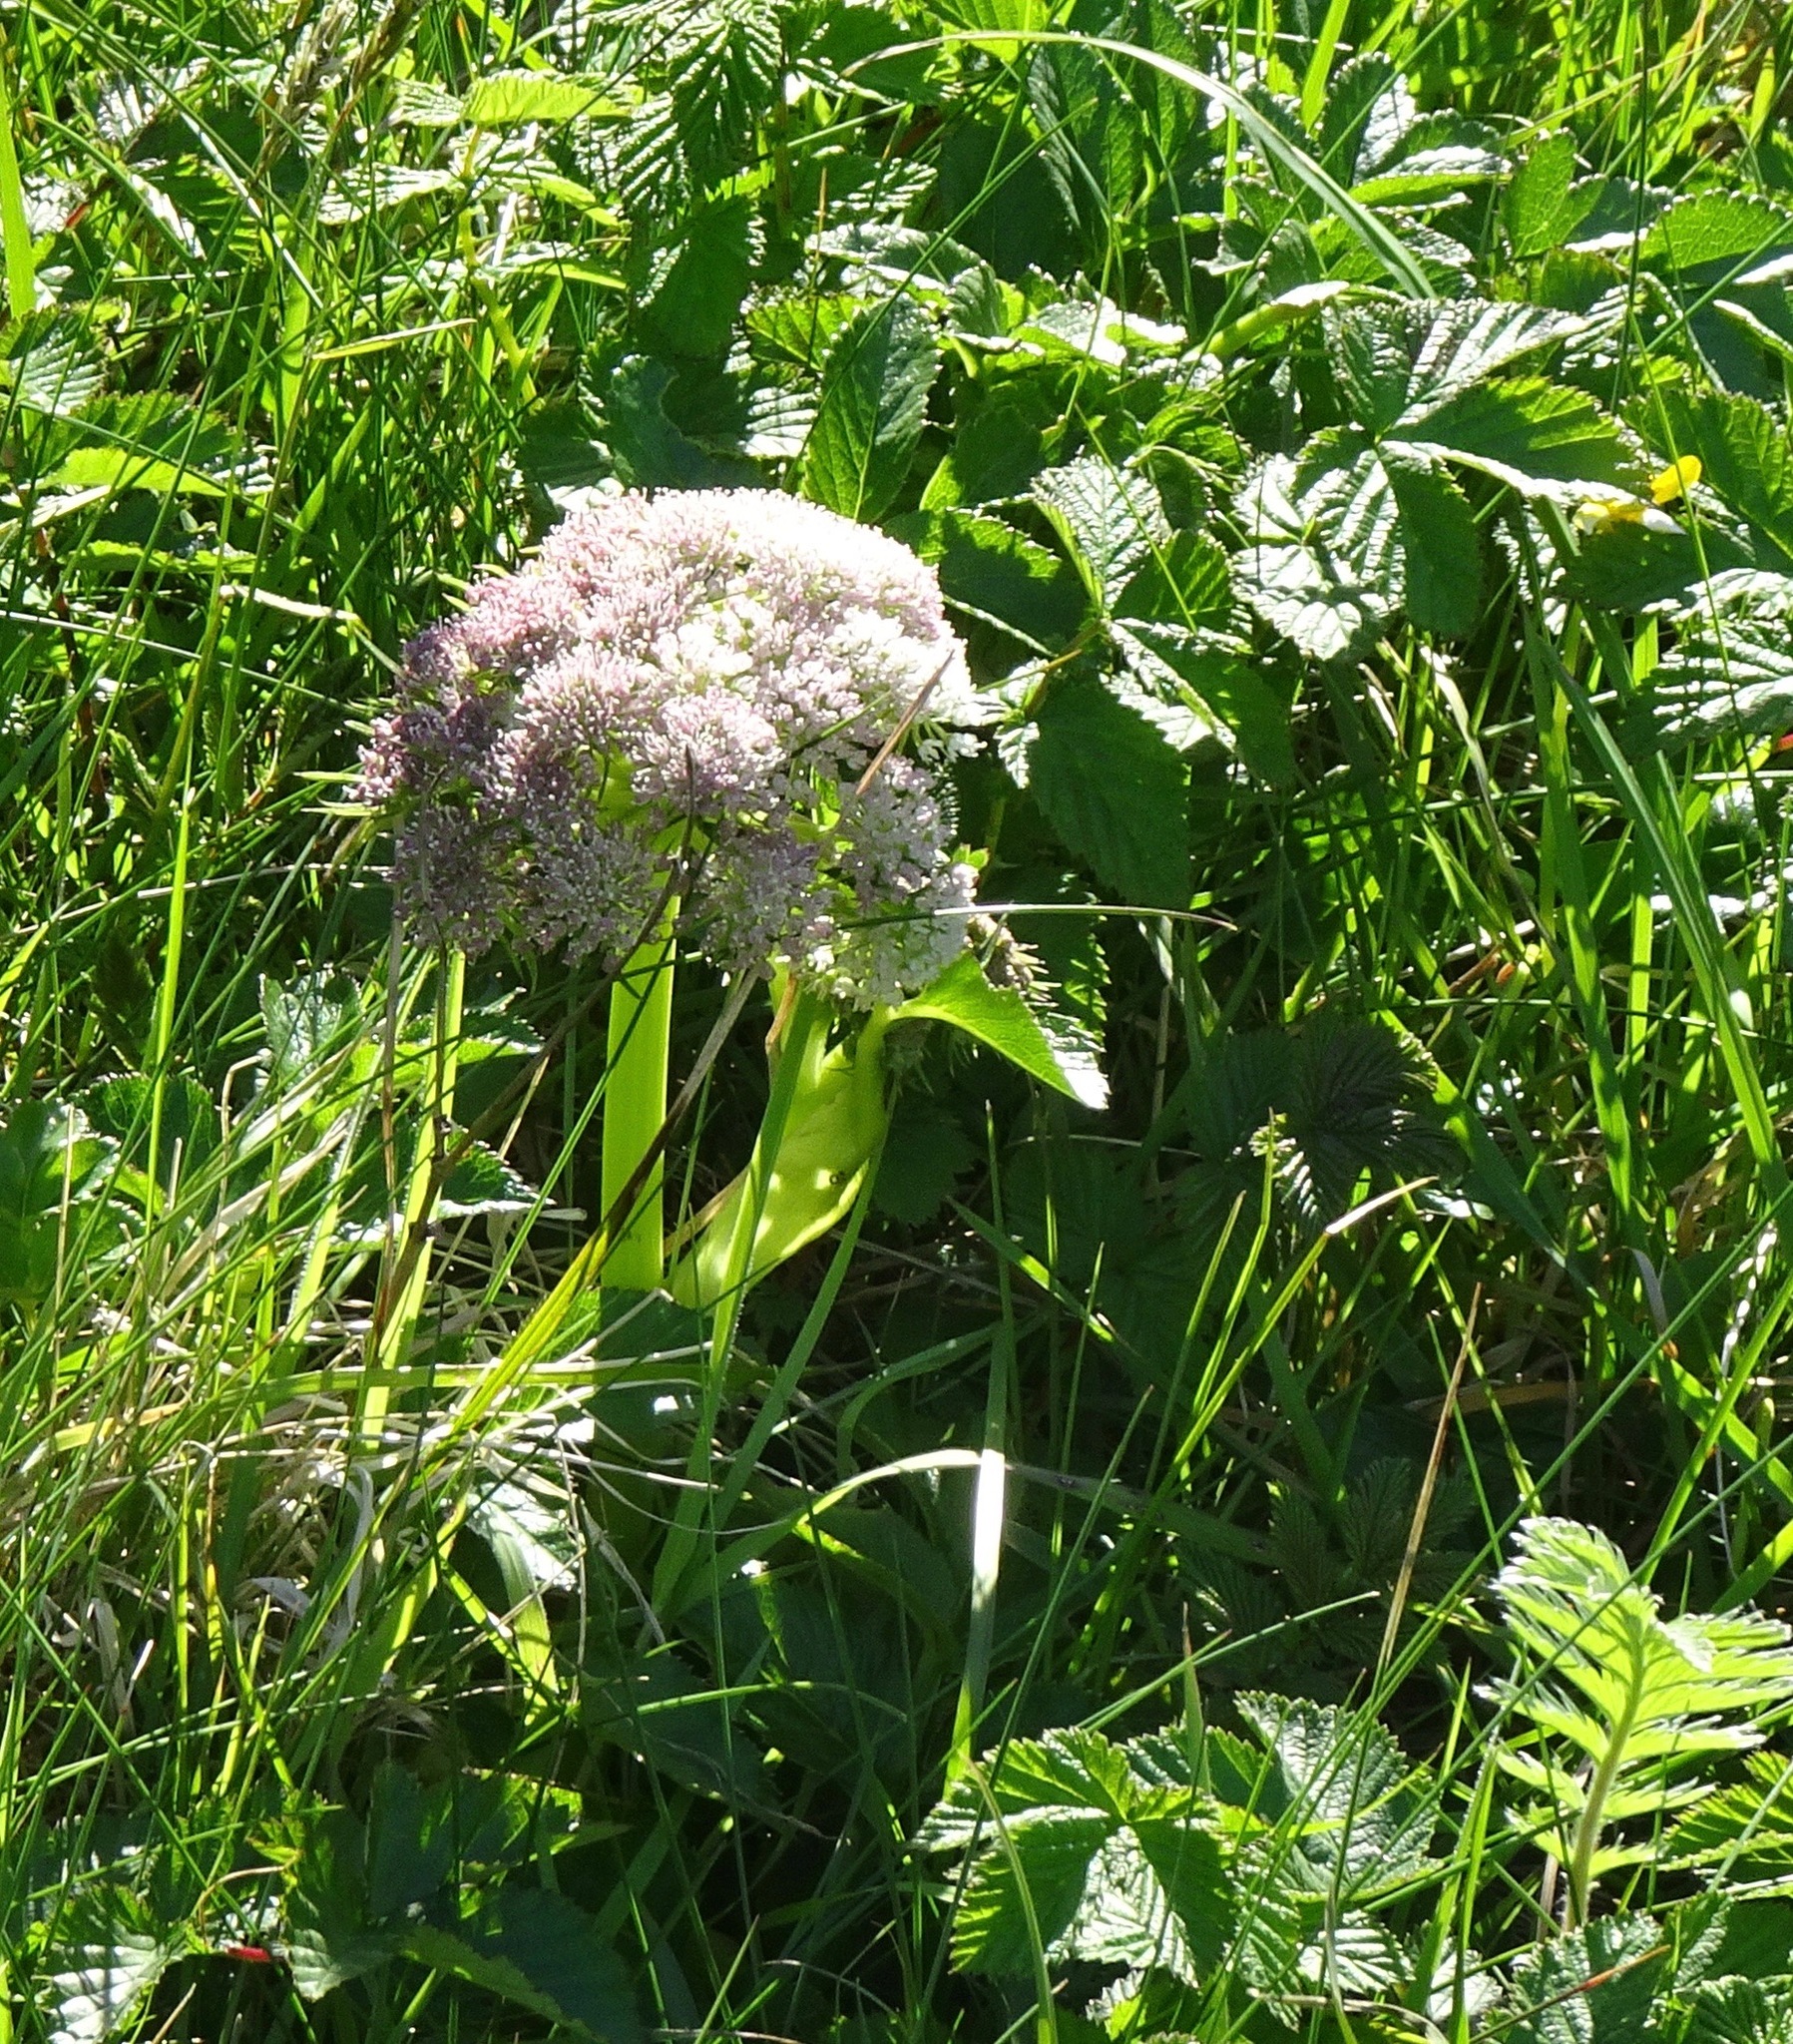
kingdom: Plantae
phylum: Tracheophyta
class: Magnoliopsida
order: Apiales
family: Apiaceae
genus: Angelica
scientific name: Angelica sylvestris
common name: Wild angelica
